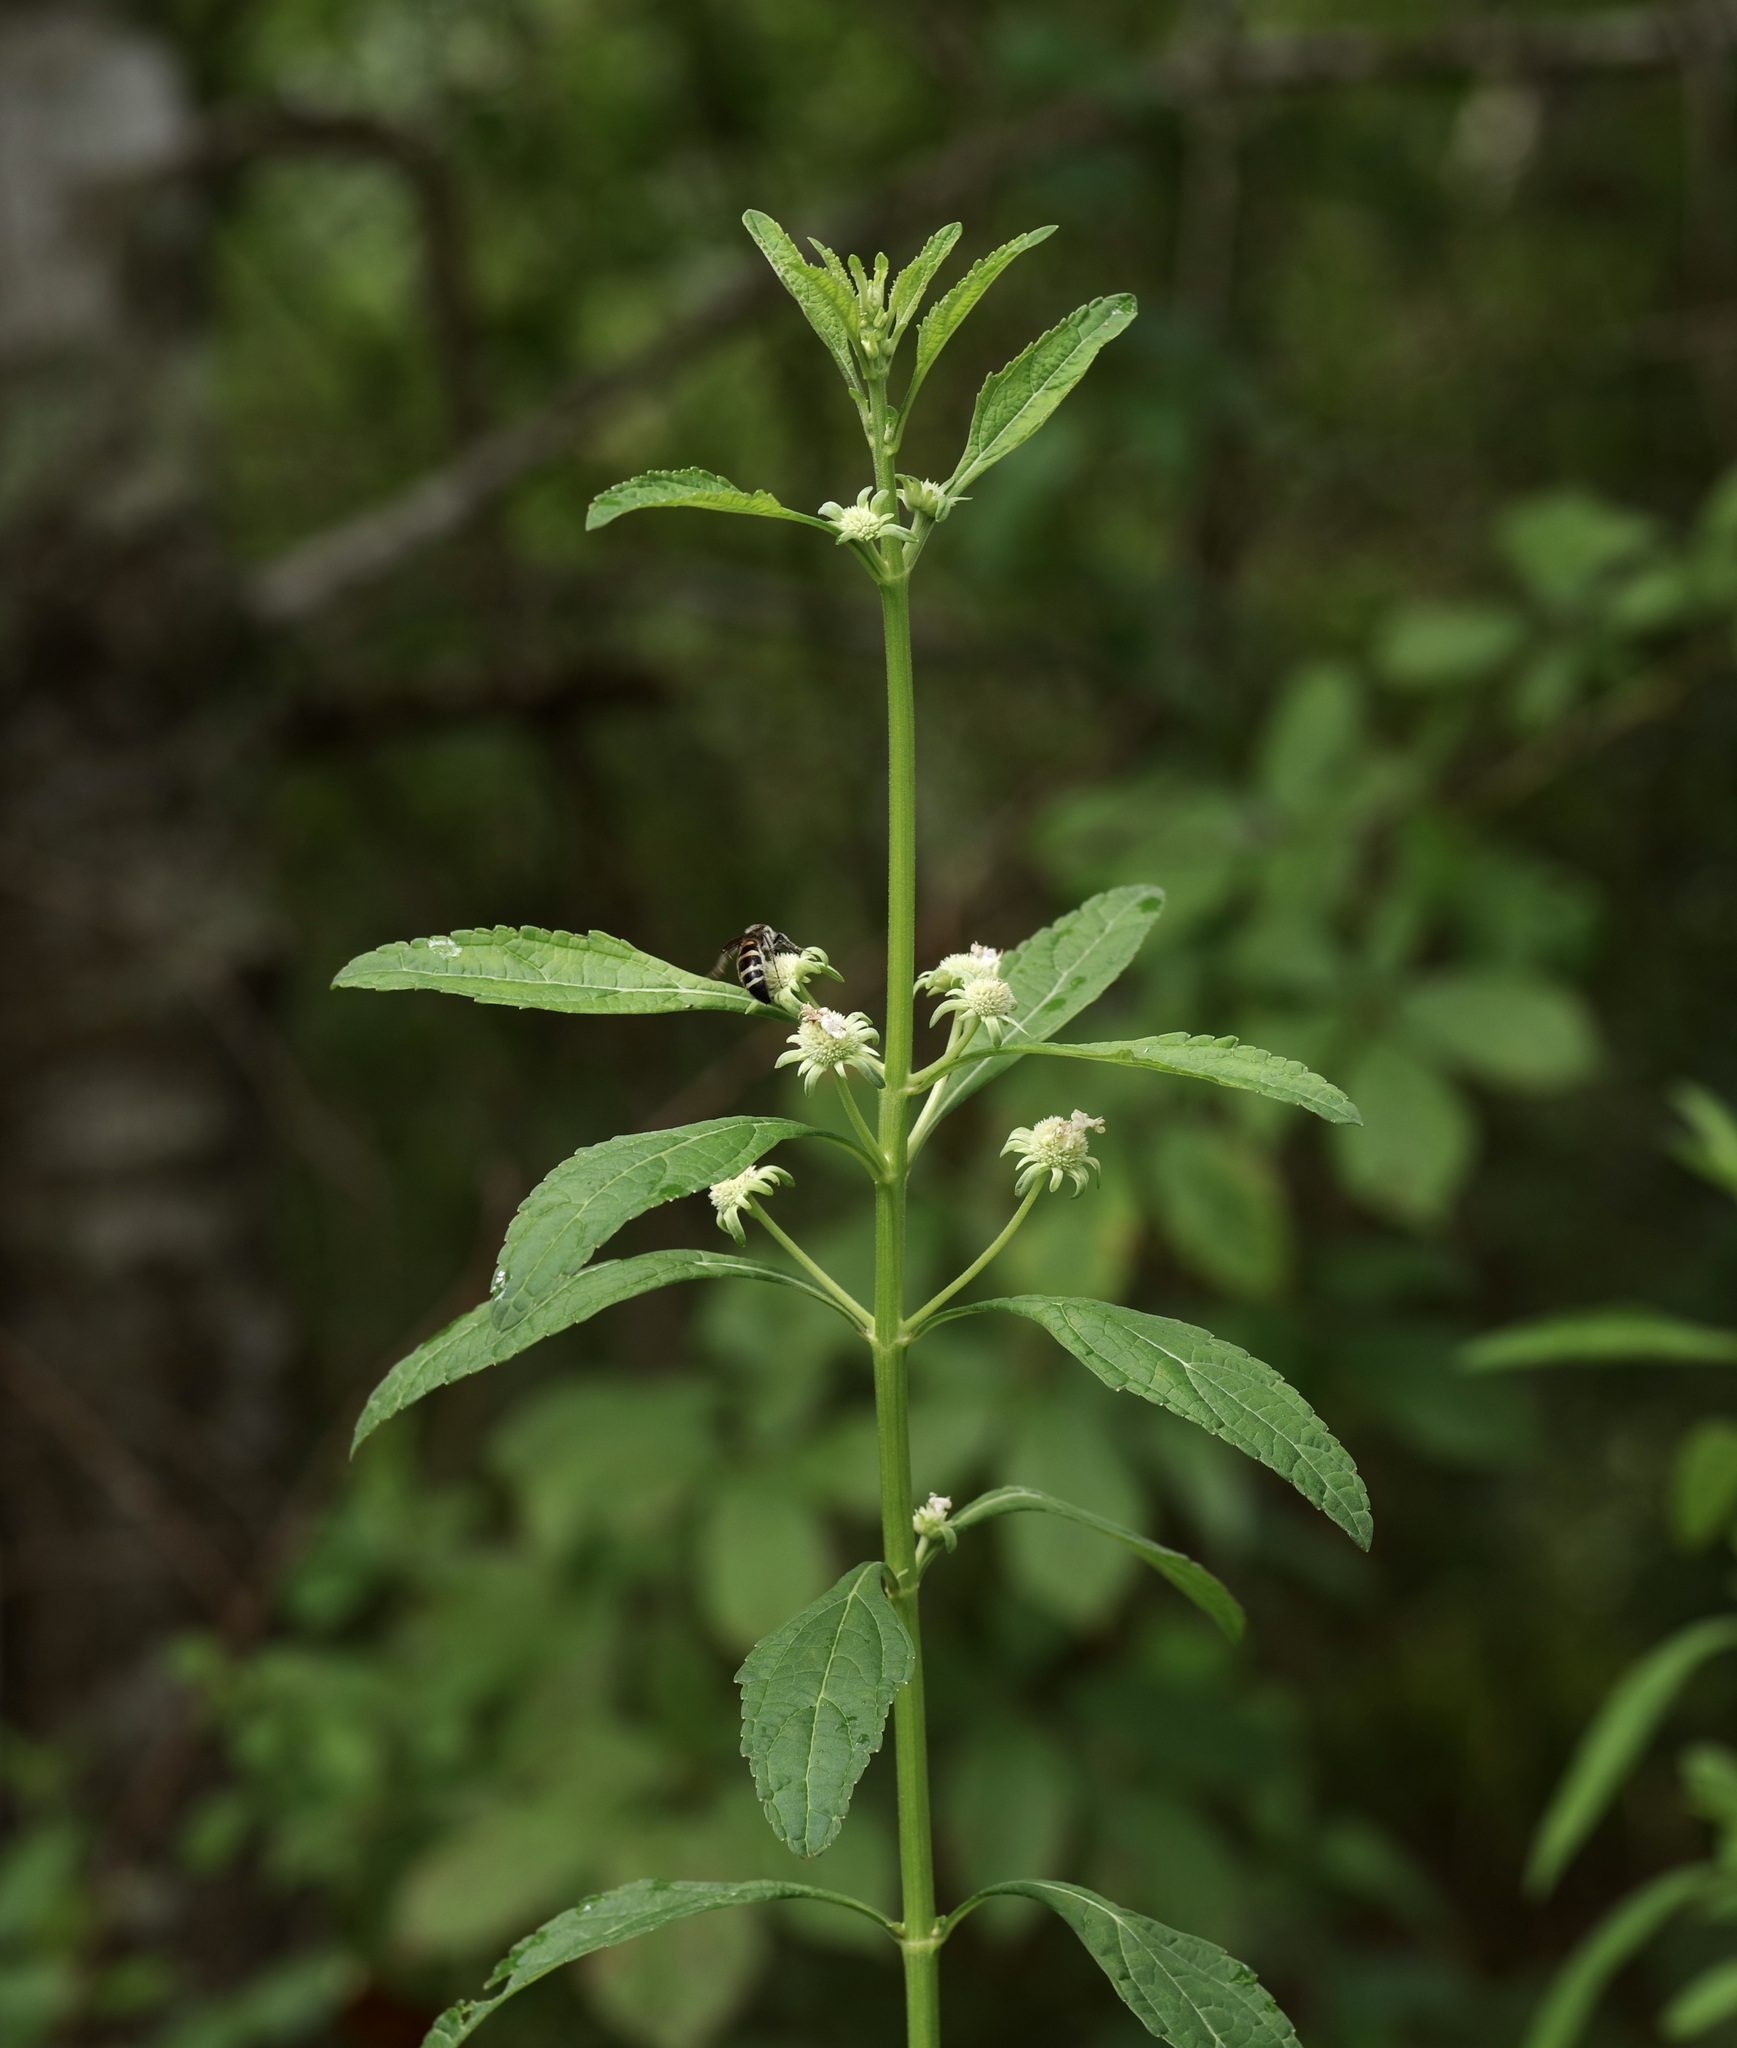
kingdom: Plantae
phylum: Tracheophyta
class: Magnoliopsida
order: Lamiales
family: Lamiaceae
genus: Hyptis
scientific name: Hyptis alata
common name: Cluster bush-mint
